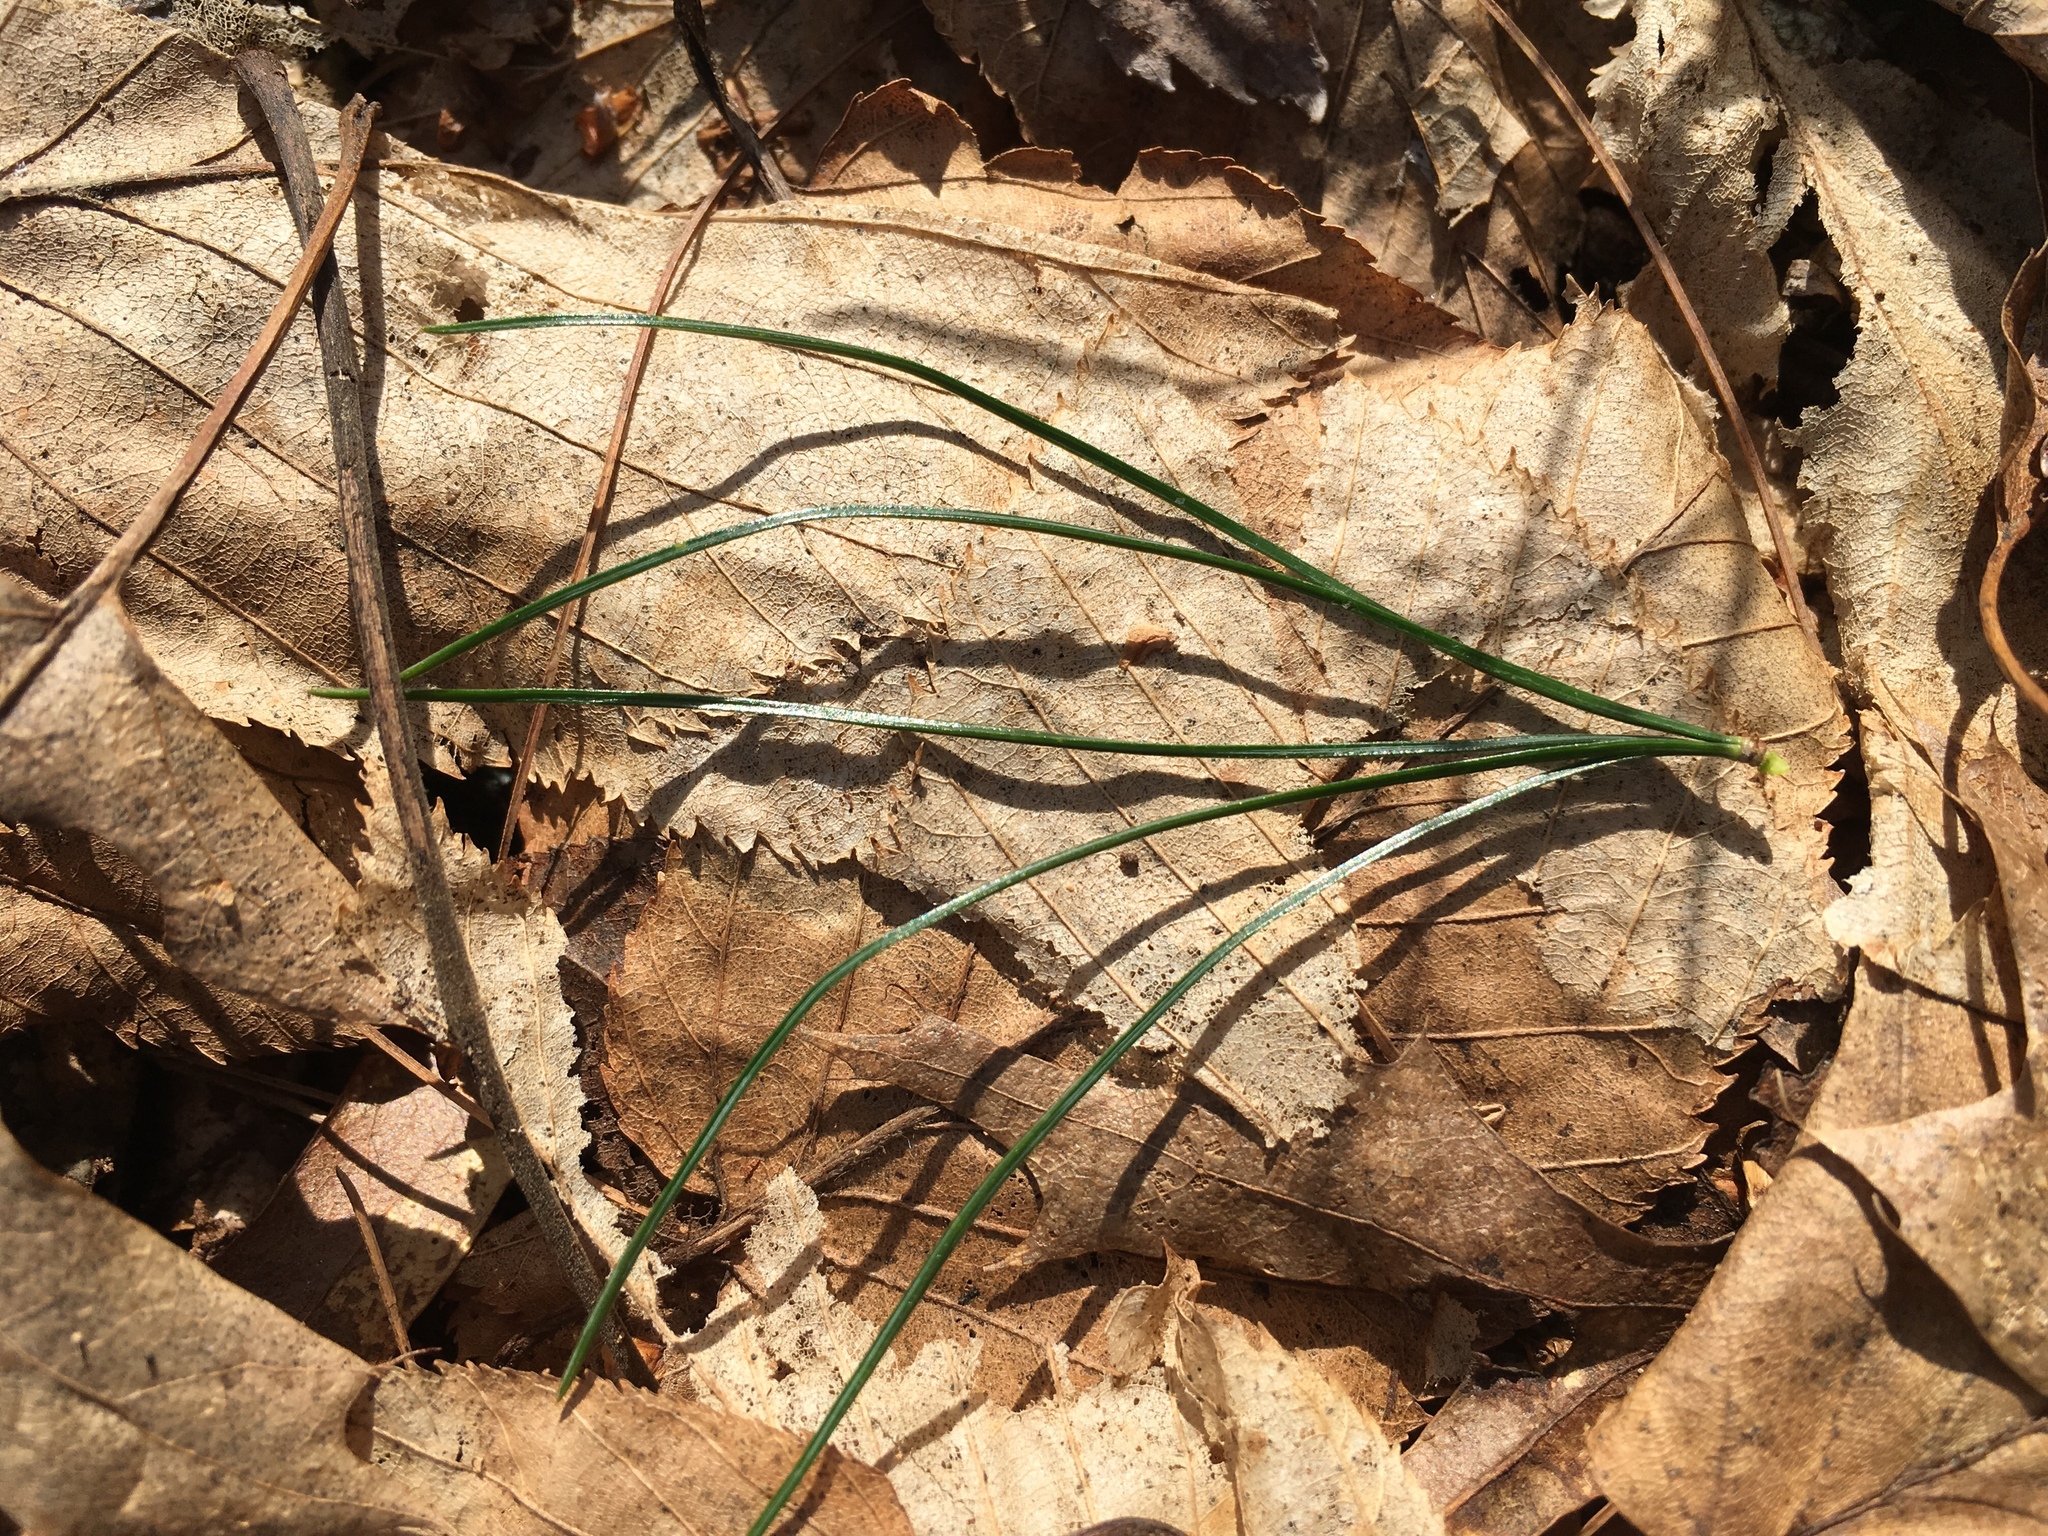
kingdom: Plantae
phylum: Tracheophyta
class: Pinopsida
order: Pinales
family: Pinaceae
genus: Pinus
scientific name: Pinus strobus
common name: Weymouth pine
